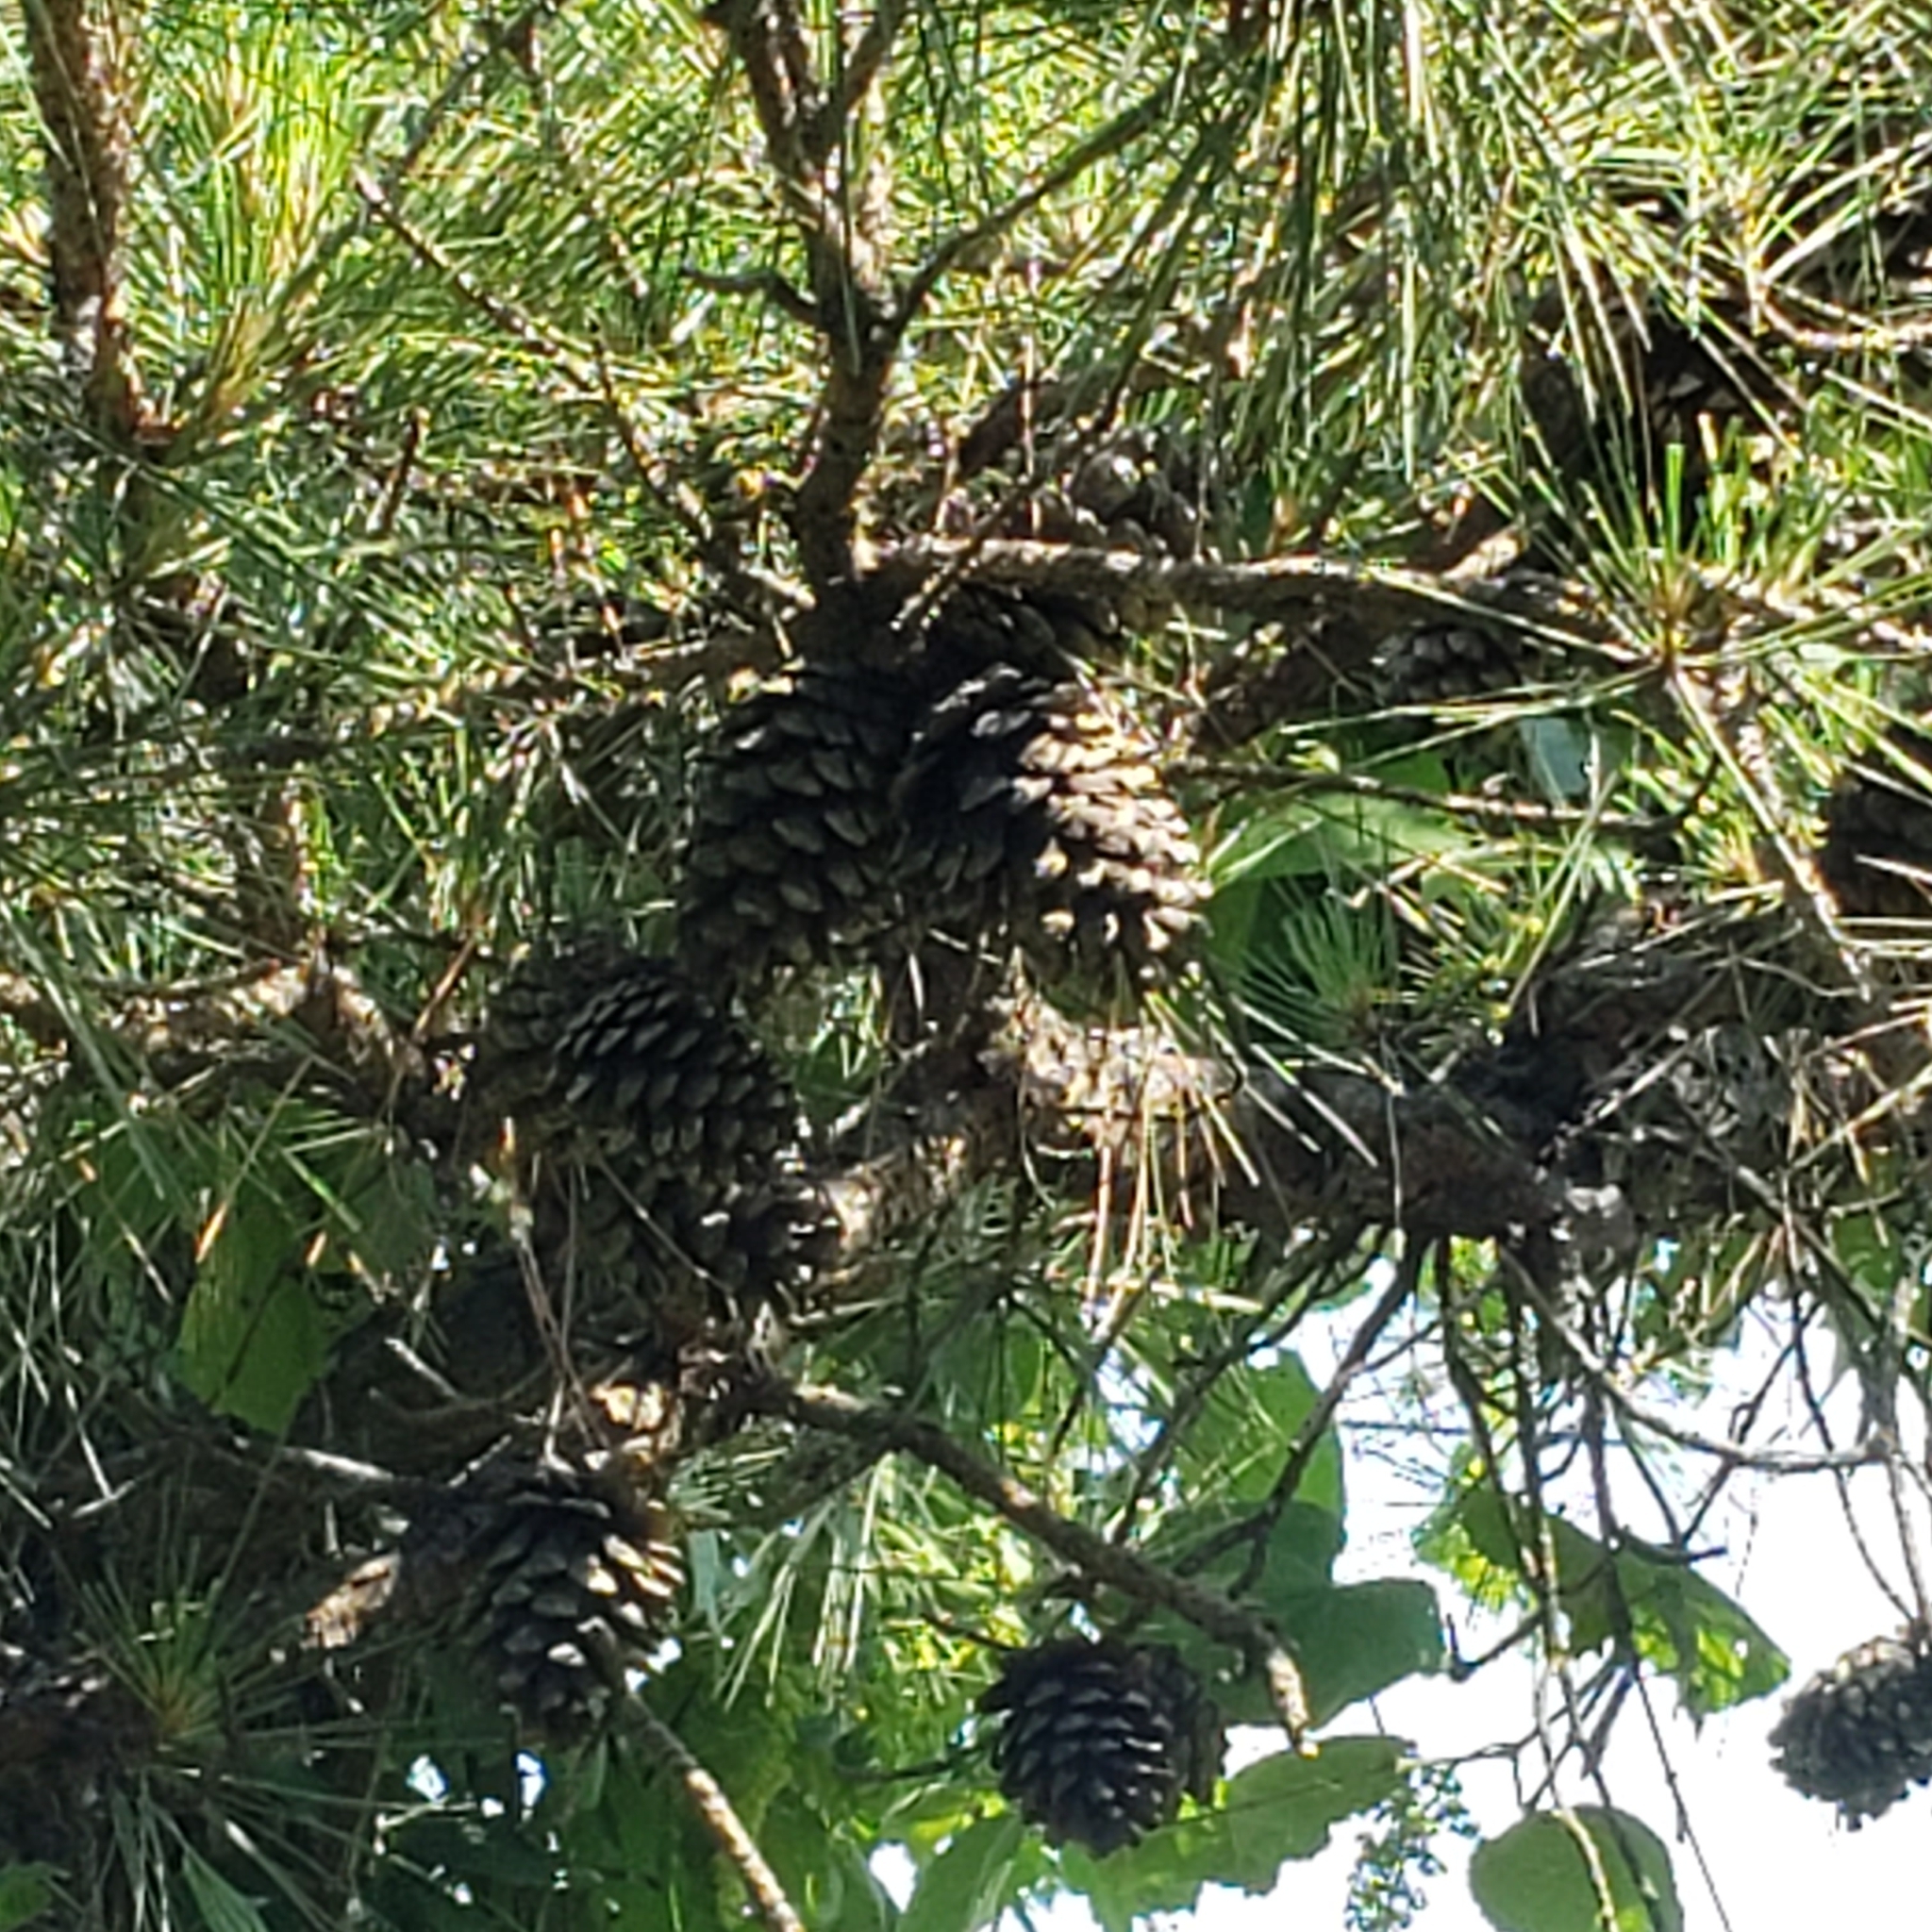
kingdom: Plantae
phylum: Tracheophyta
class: Pinopsida
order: Pinales
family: Pinaceae
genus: Pinus
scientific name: Pinus echinata
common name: Shortleaf pine
